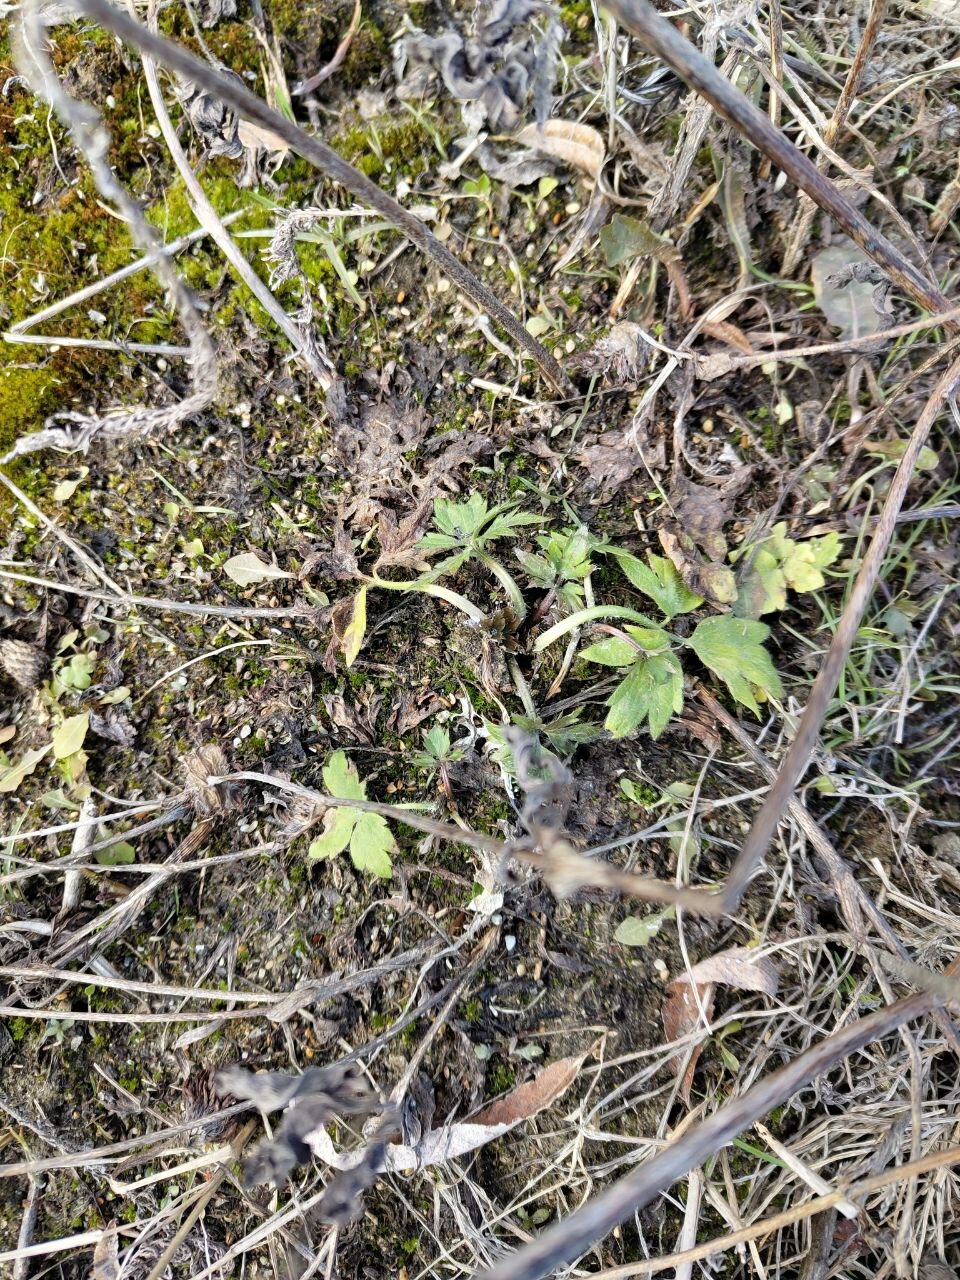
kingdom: Plantae
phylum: Tracheophyta
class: Magnoliopsida
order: Ranunculales
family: Ranunculaceae
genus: Ranunculus
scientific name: Ranunculus repens
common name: Creeping buttercup
